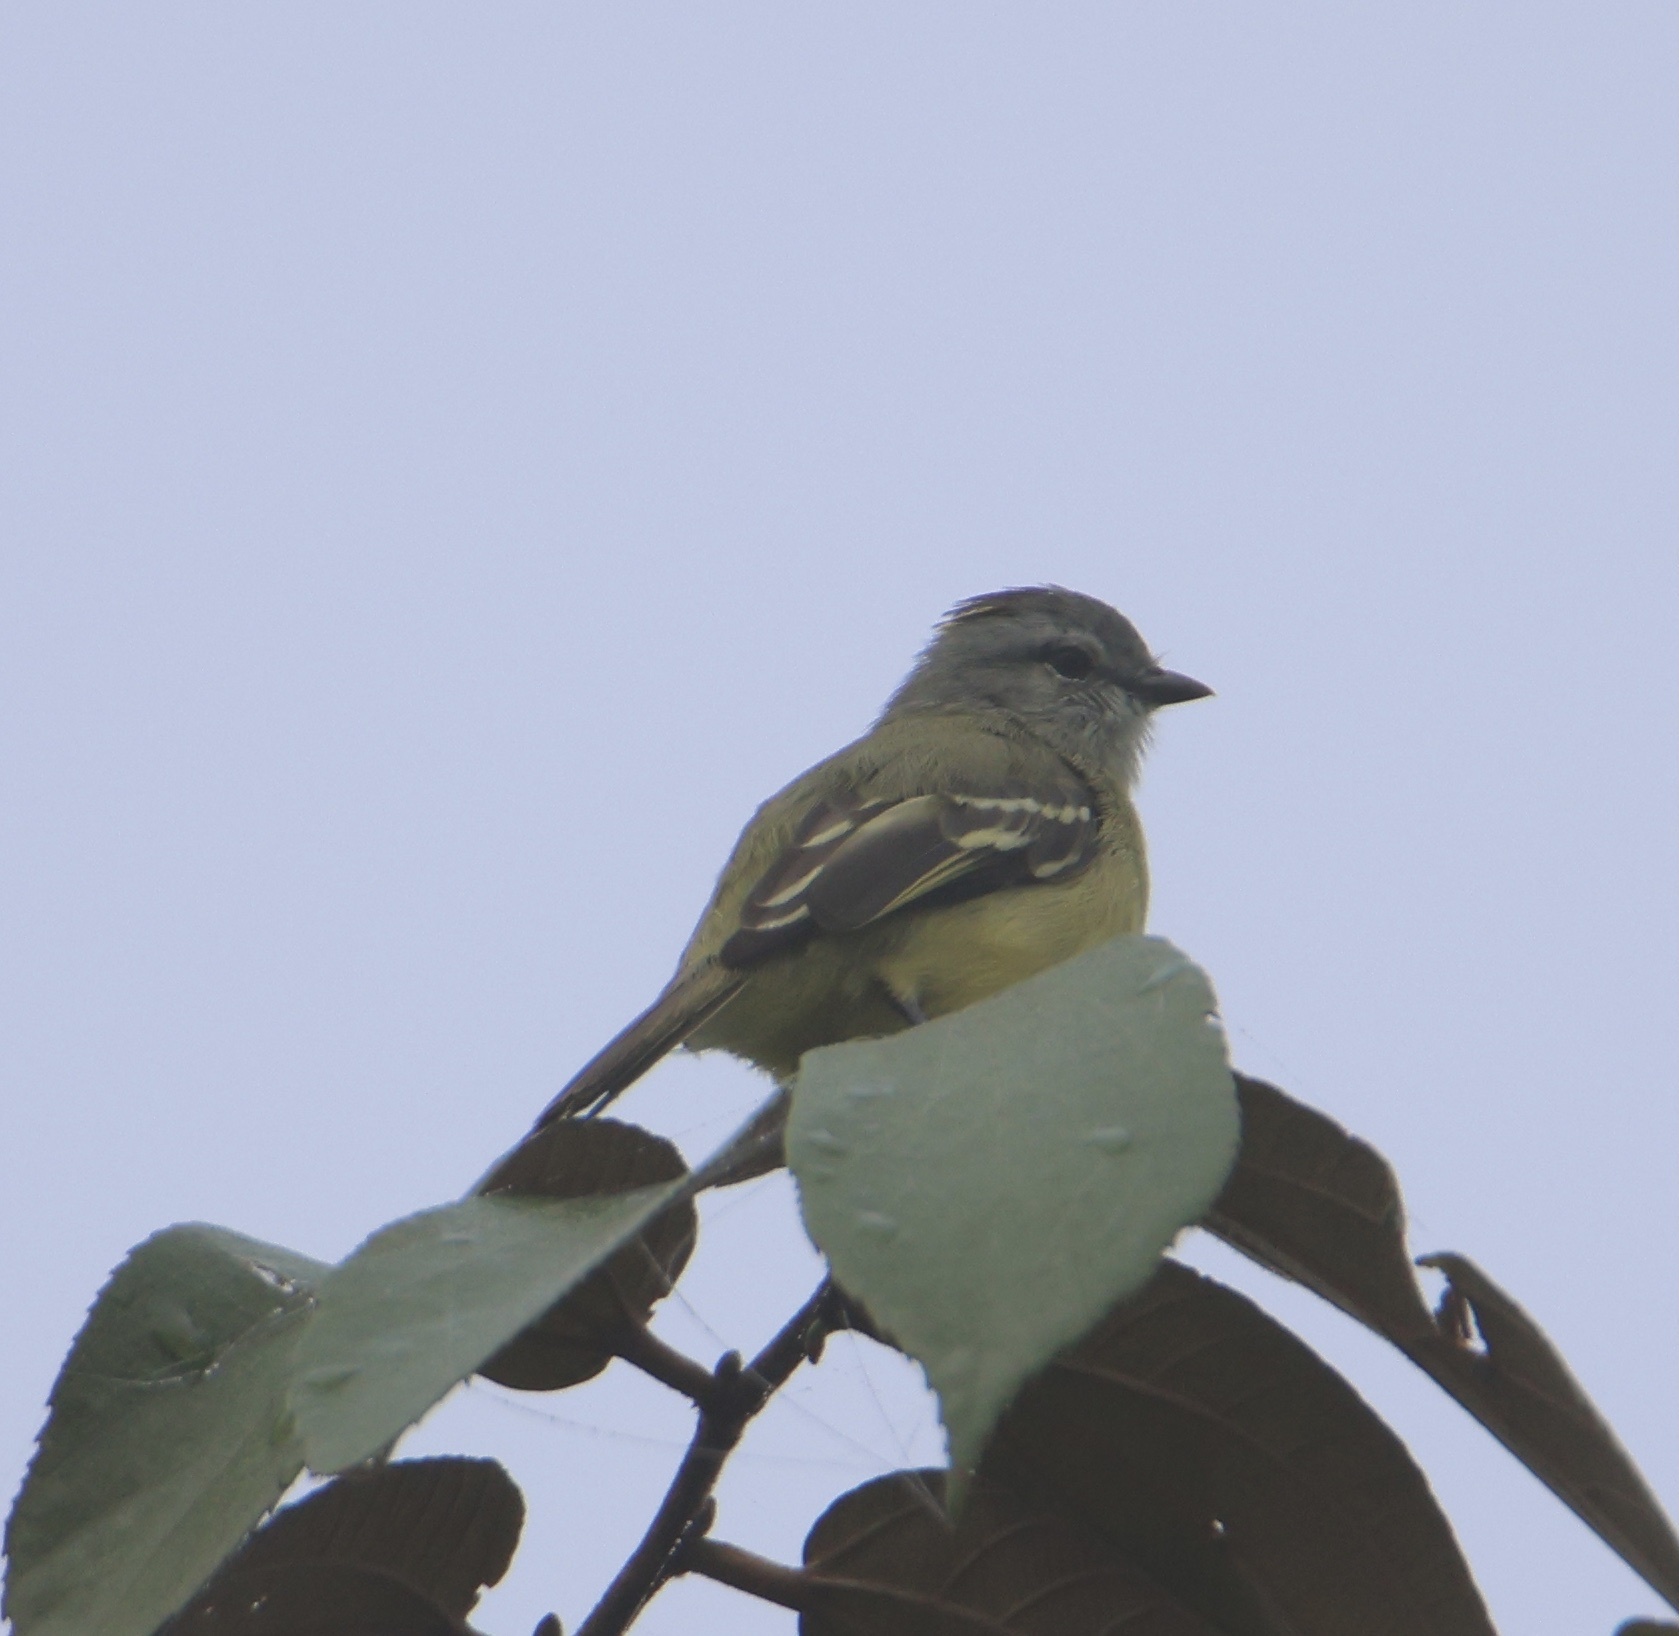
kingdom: Animalia
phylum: Chordata
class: Aves
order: Passeriformes
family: Tyrannidae
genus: Tyrannulus
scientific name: Tyrannulus elatus
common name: Yellow-crowned tyrannulet
